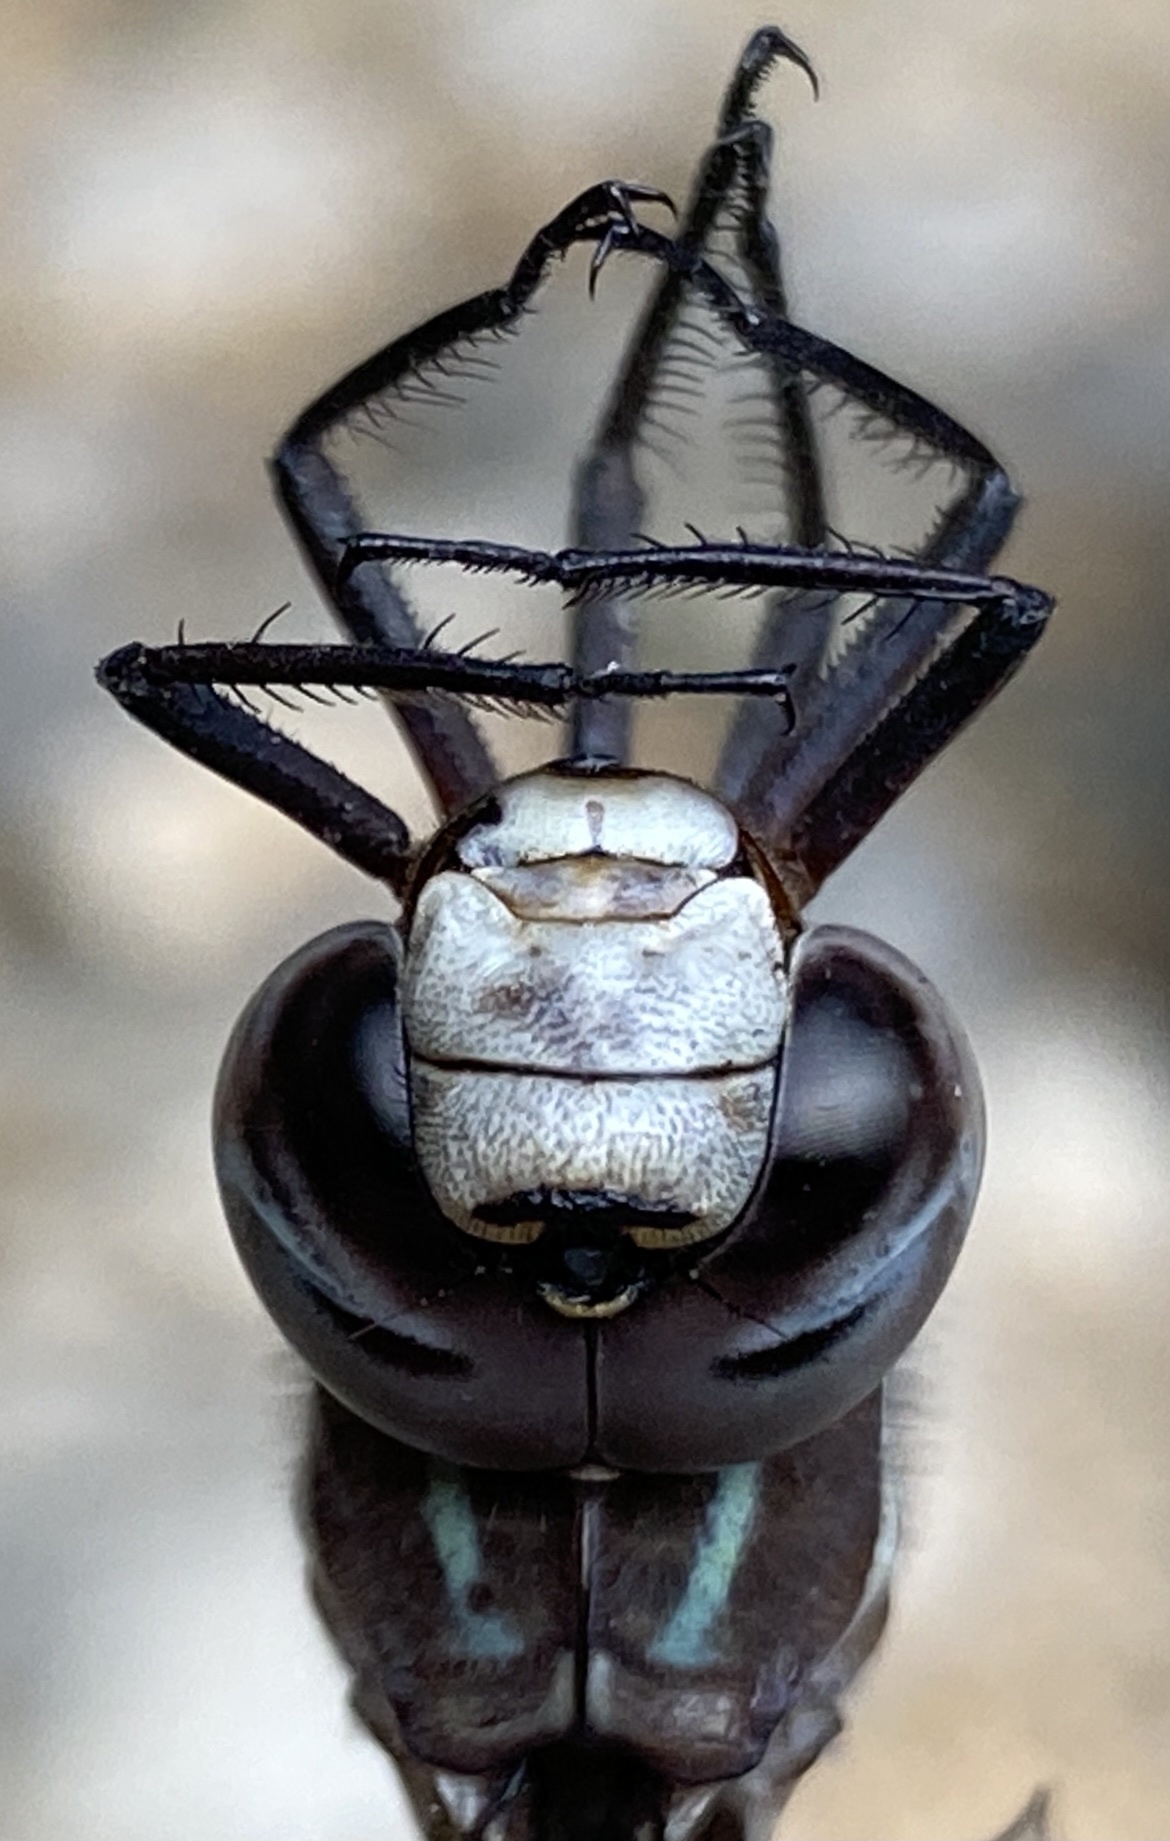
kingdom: Animalia
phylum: Arthropoda
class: Insecta
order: Odonata
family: Aeshnidae
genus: Aeshna
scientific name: Aeshna walkeri
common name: Walker's darner
